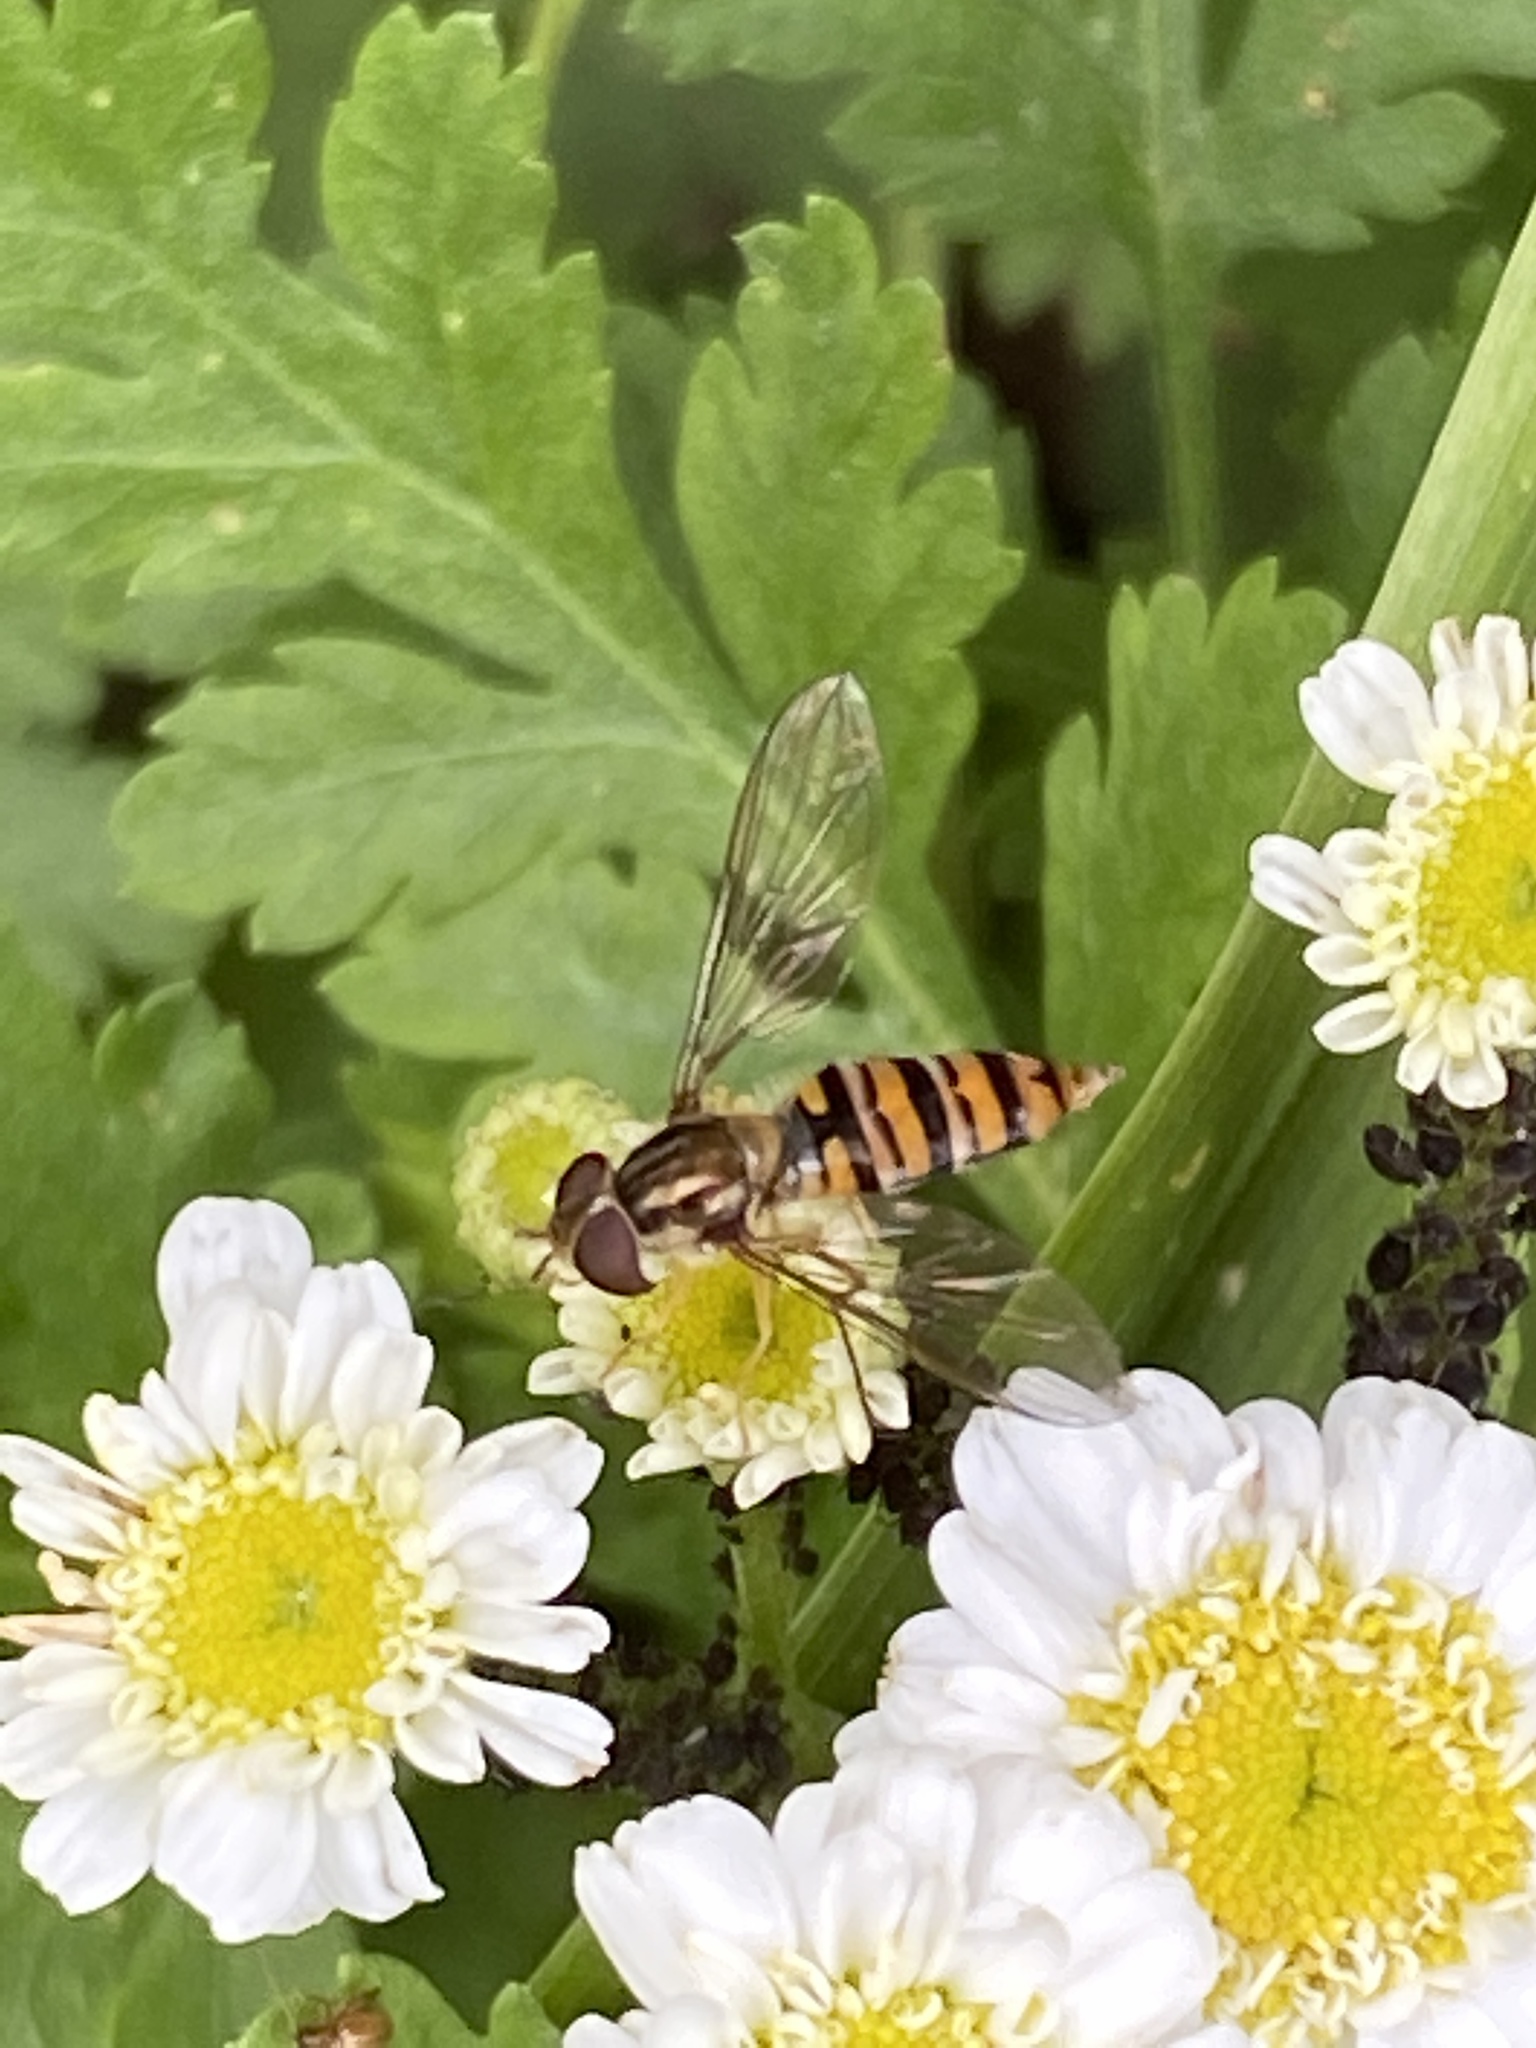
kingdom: Animalia
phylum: Arthropoda
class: Insecta
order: Diptera
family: Syrphidae
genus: Episyrphus
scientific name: Episyrphus balteatus
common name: Marmalade hoverfly
